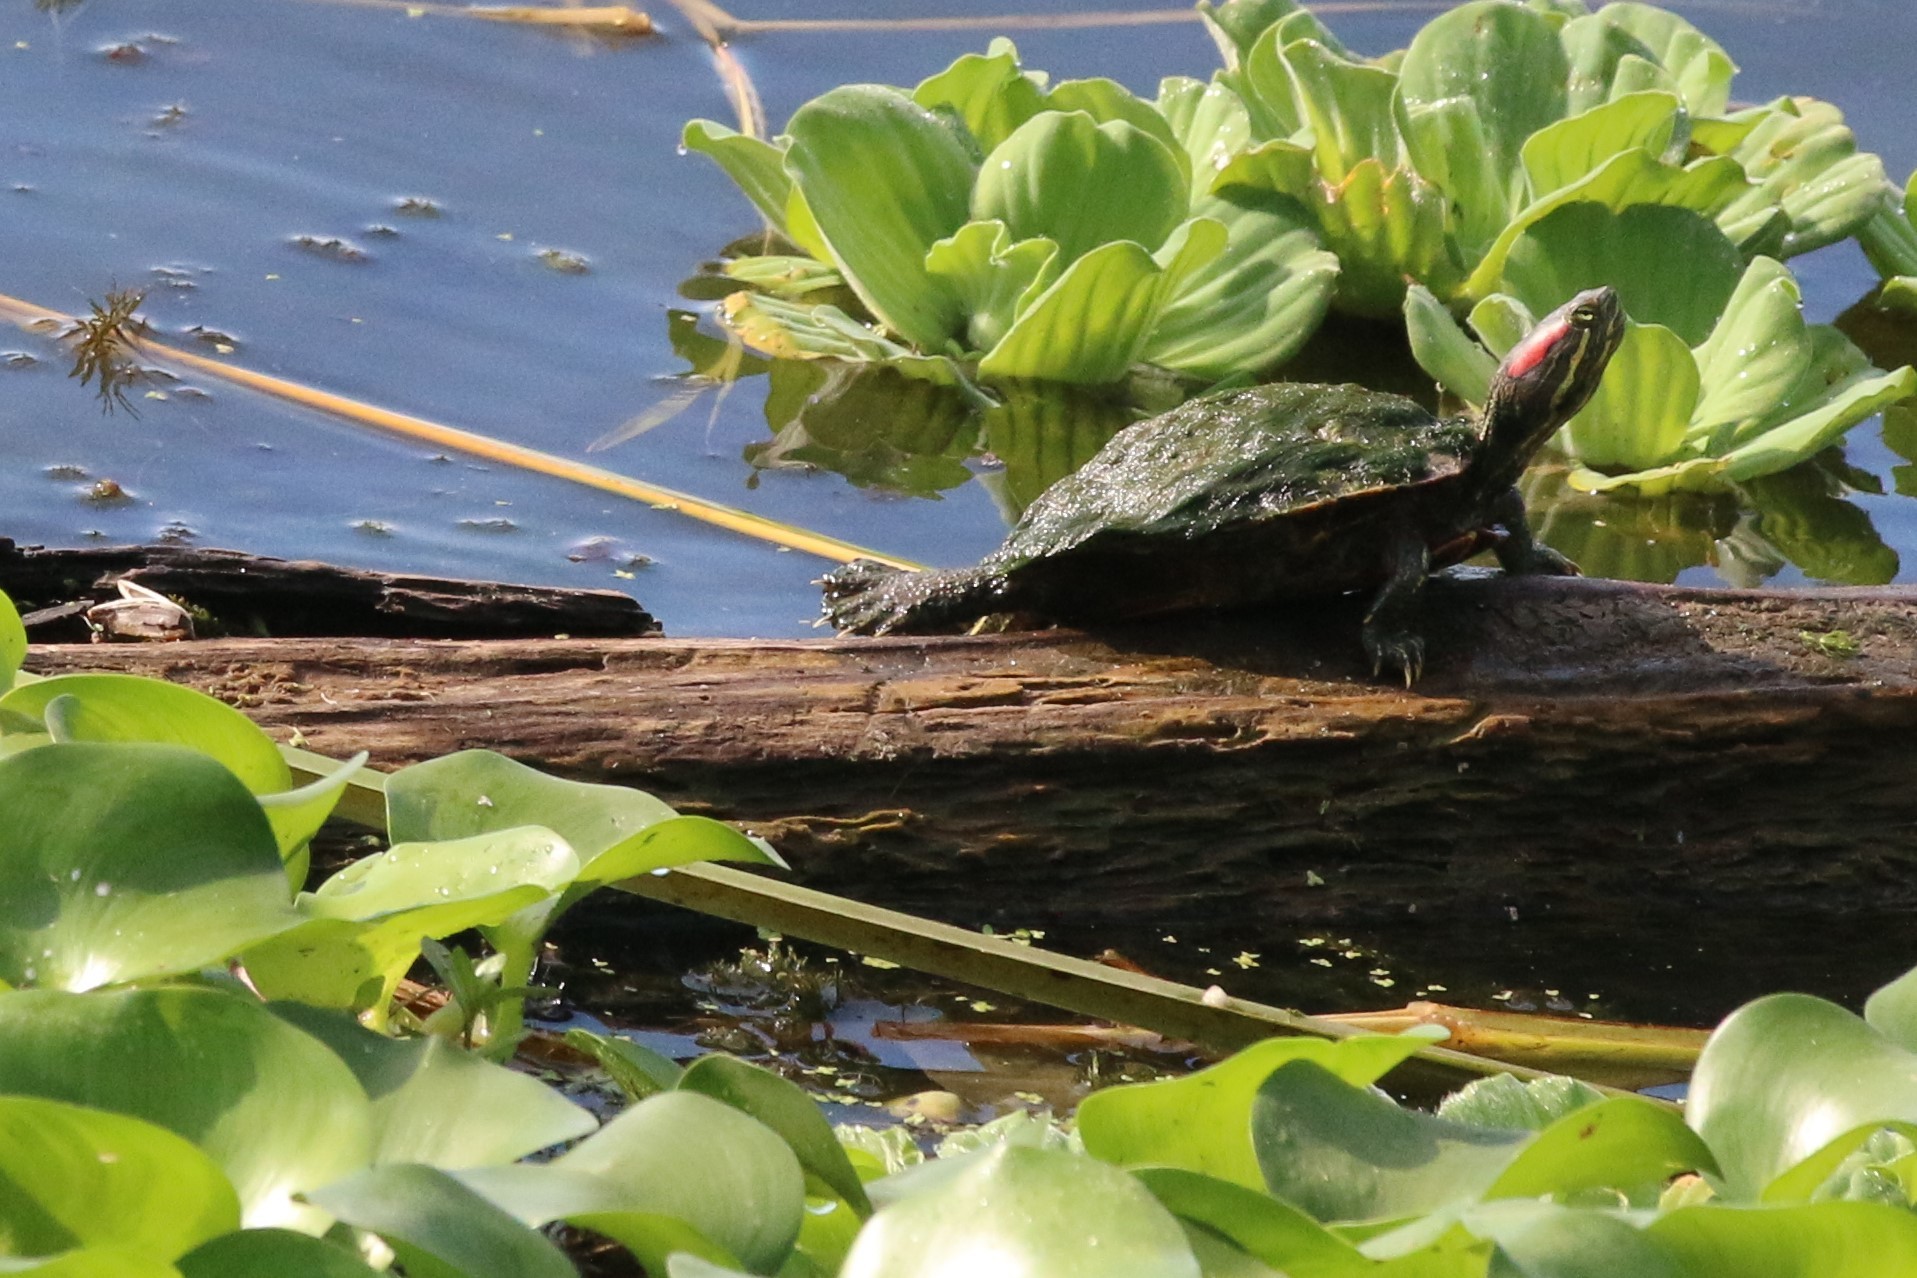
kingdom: Animalia
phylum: Chordata
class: Testudines
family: Emydidae
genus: Trachemys
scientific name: Trachemys scripta
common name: Slider
